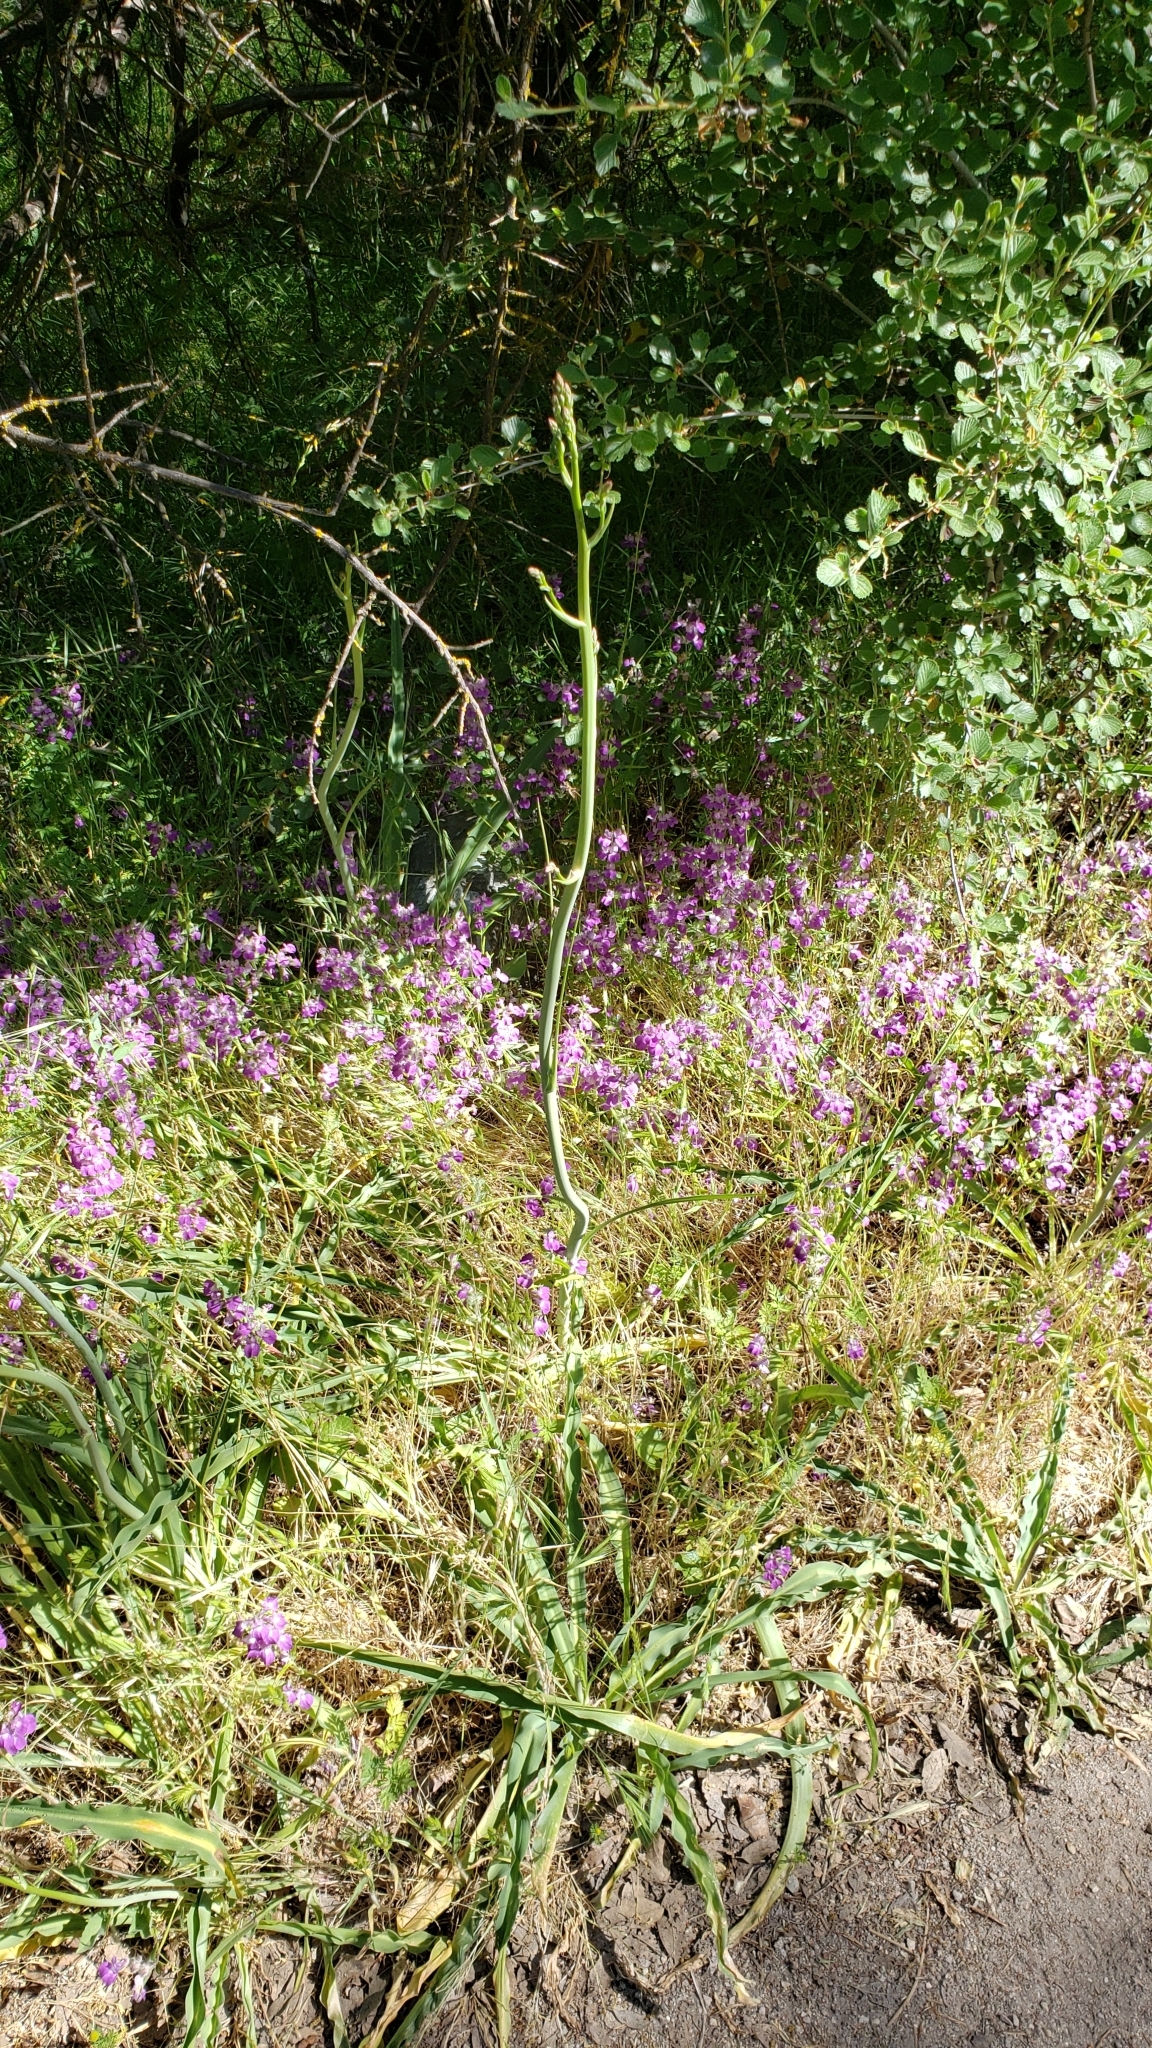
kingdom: Plantae
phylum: Tracheophyta
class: Liliopsida
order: Asparagales
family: Asparagaceae
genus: Chlorogalum
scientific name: Chlorogalum pomeridianum
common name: Amole
